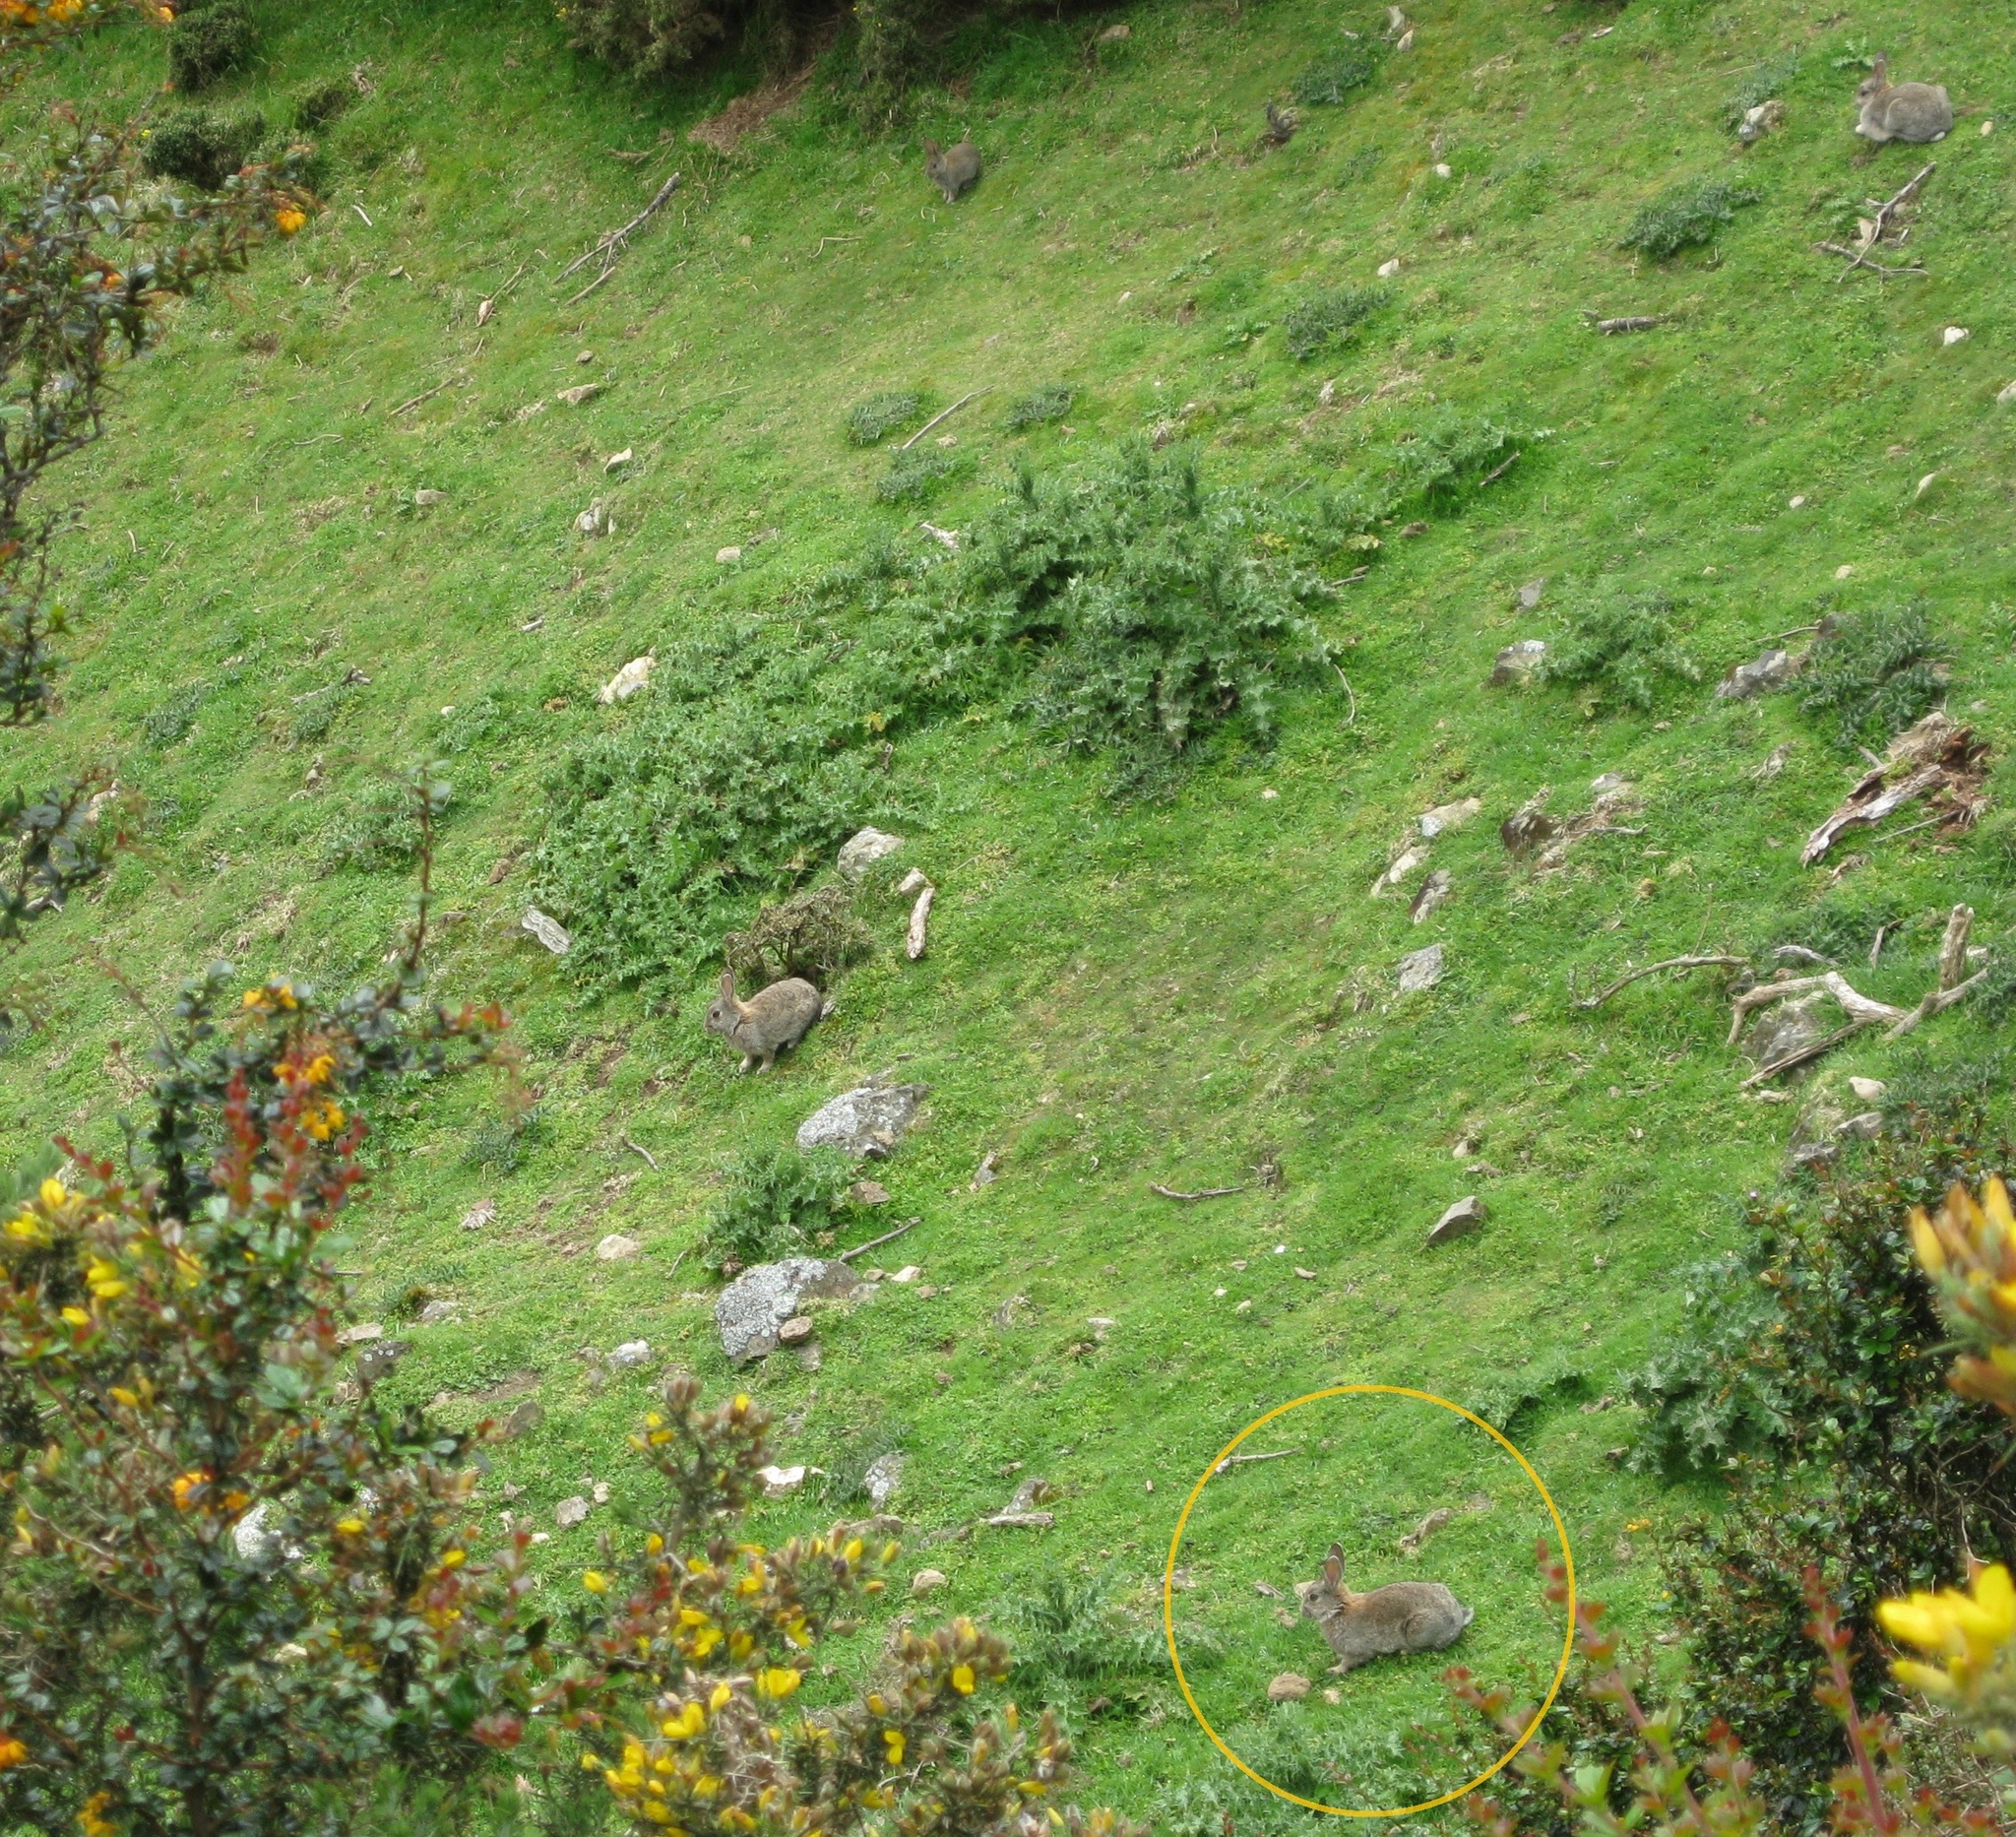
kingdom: Animalia
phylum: Chordata
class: Mammalia
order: Lagomorpha
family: Leporidae
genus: Oryctolagus
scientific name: Oryctolagus cuniculus
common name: European rabbit
